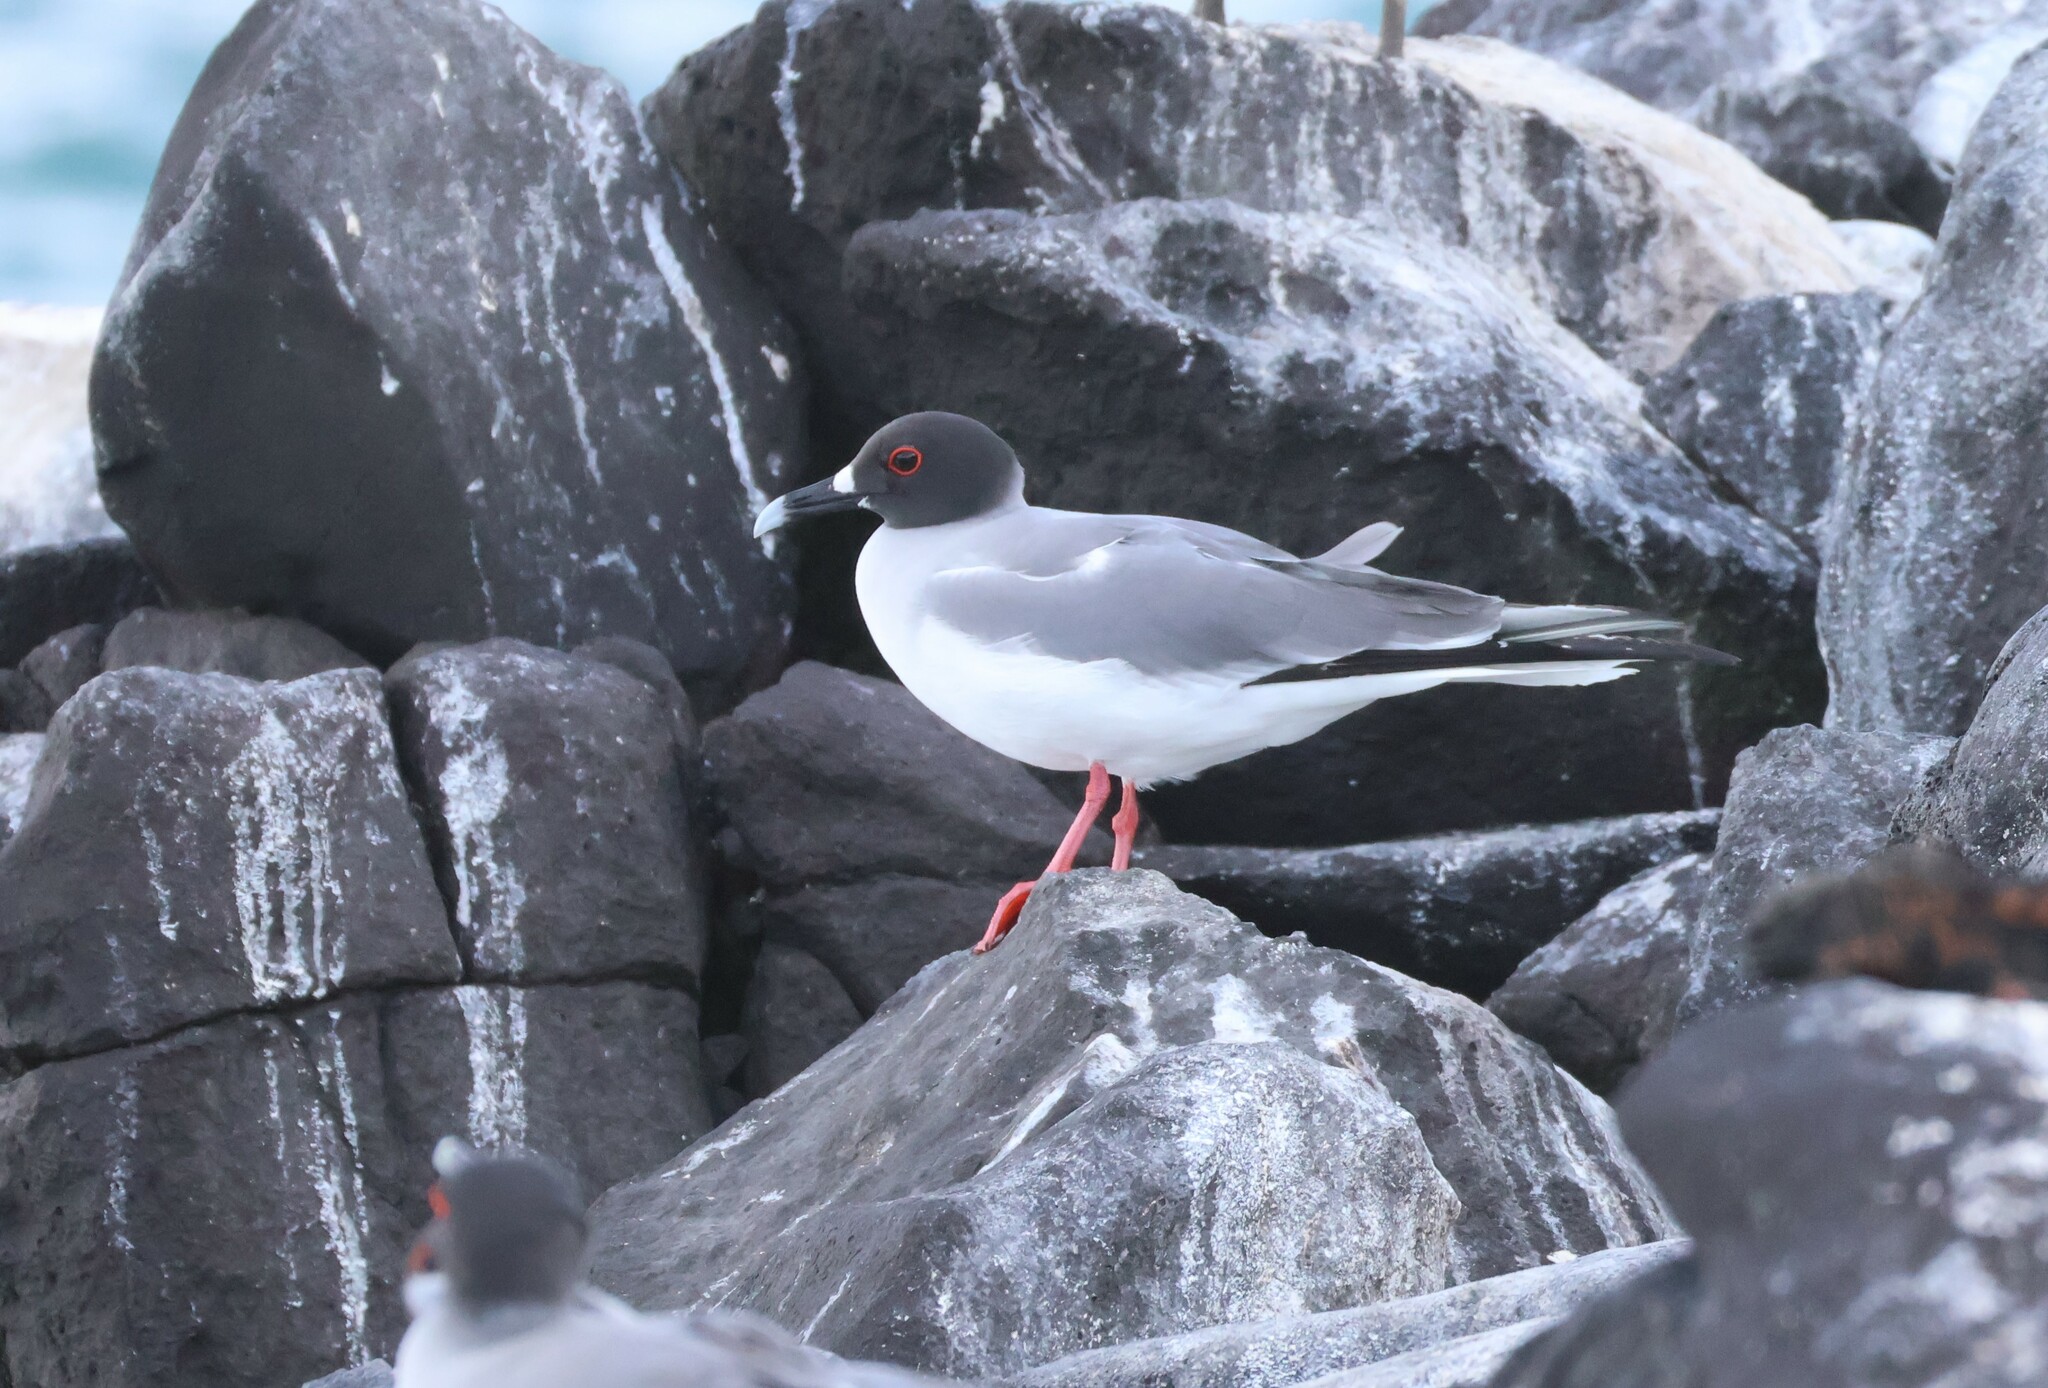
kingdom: Animalia
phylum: Chordata
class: Aves
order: Charadriiformes
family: Laridae
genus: Creagrus
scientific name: Creagrus furcatus
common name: Swallow-tailed gull
